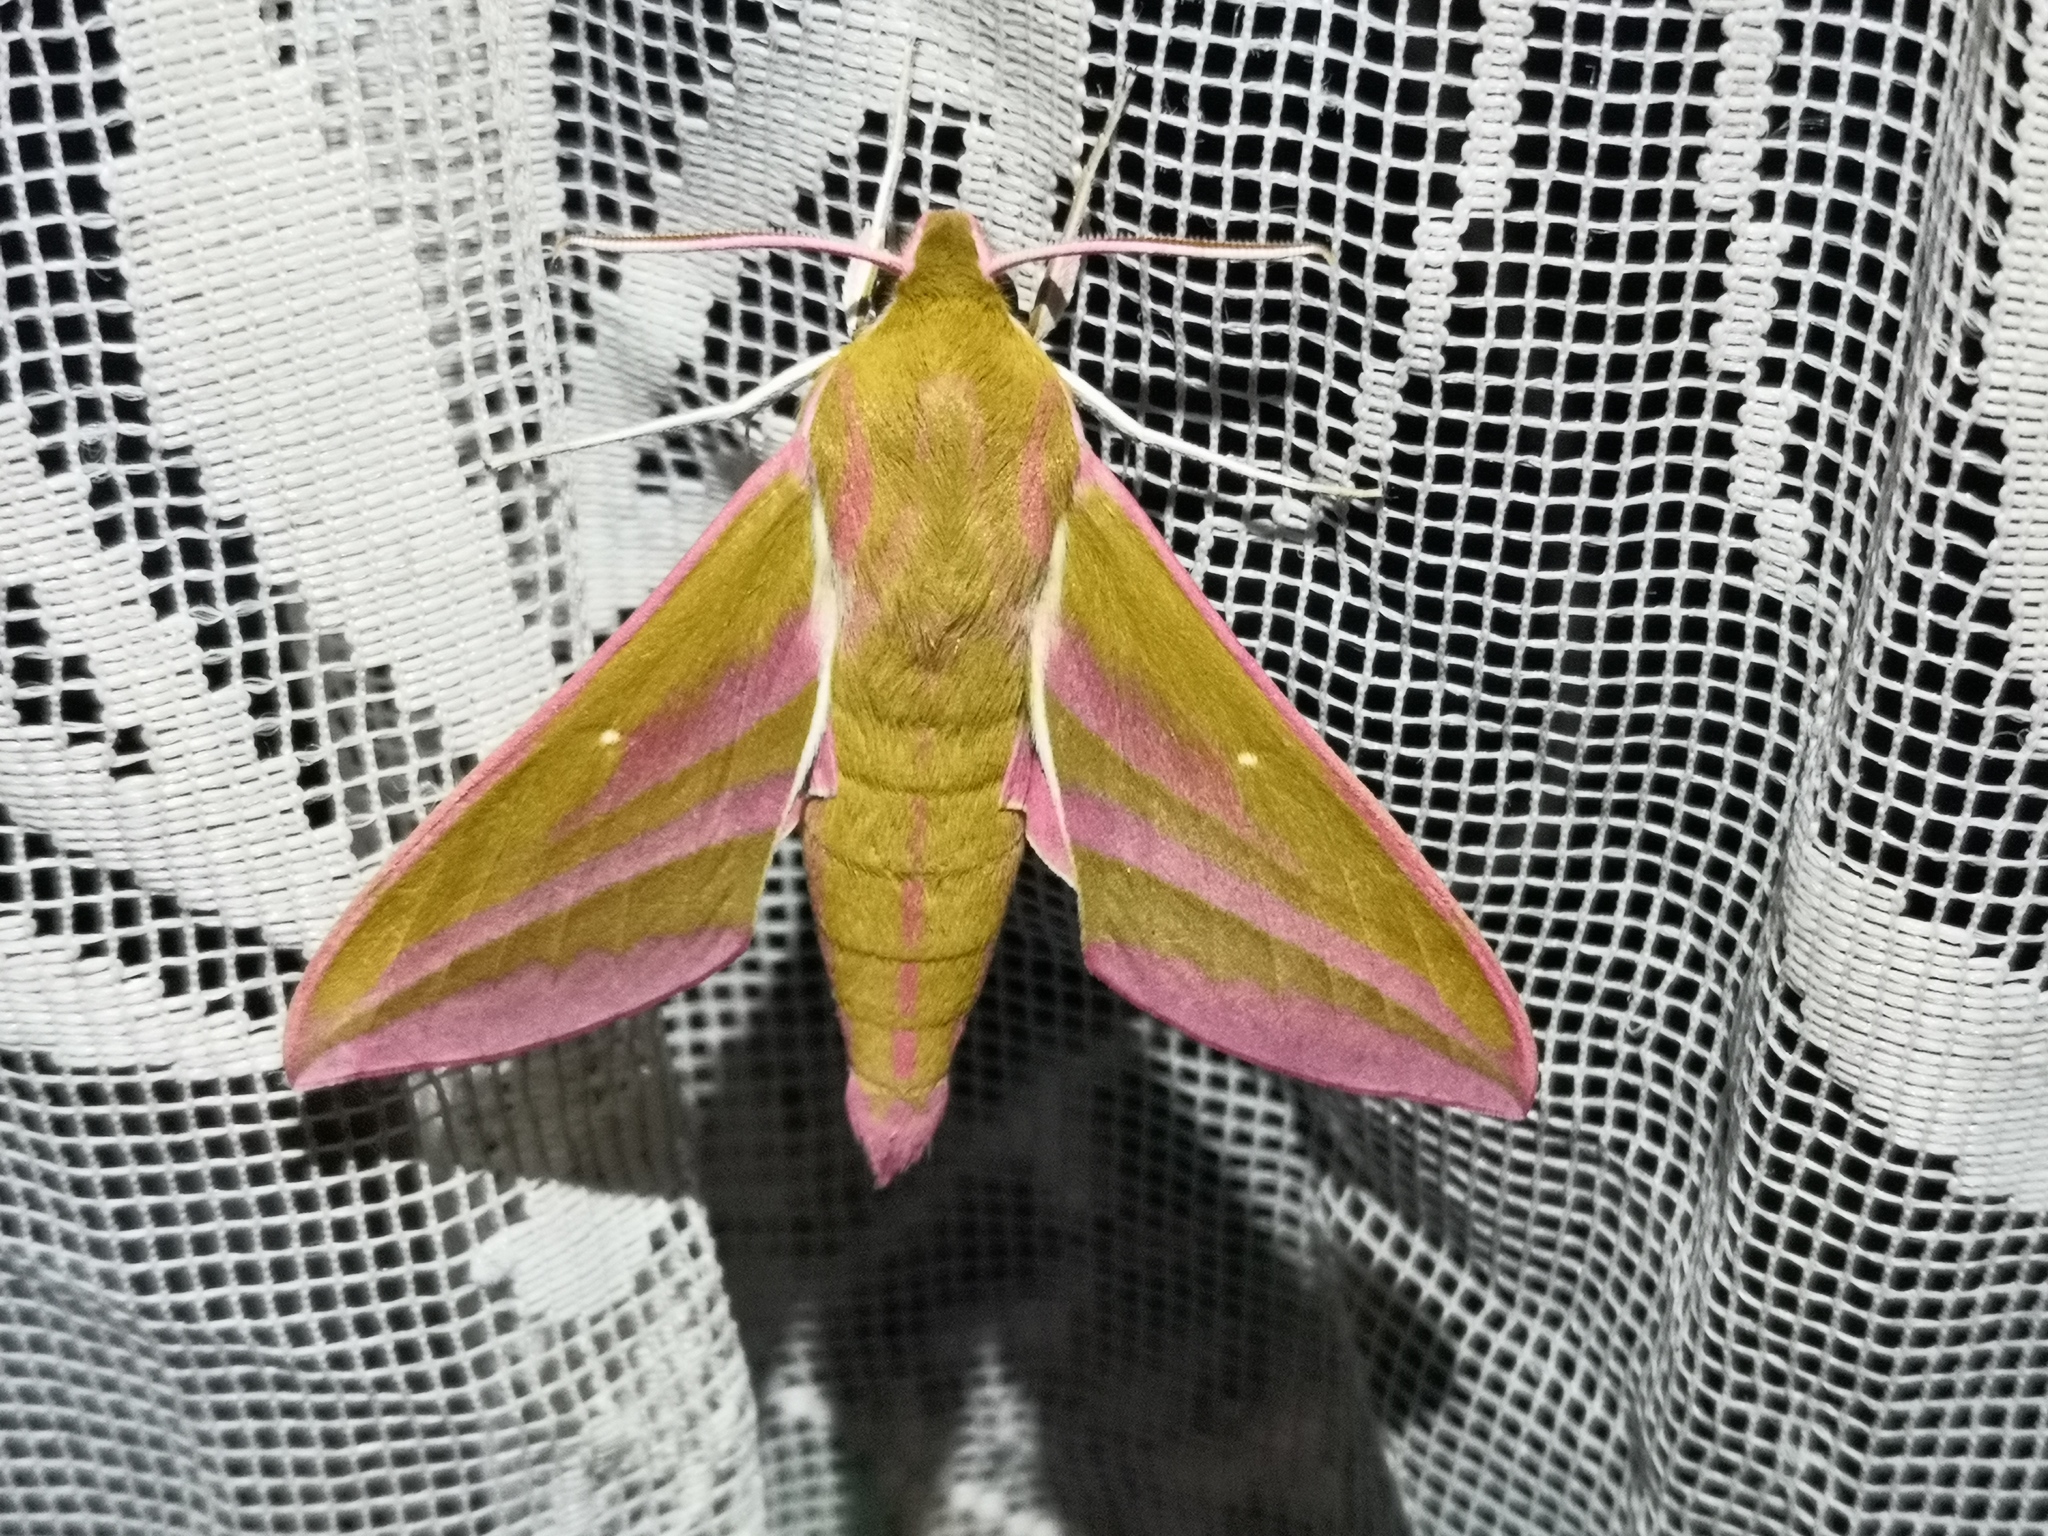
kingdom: Animalia
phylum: Arthropoda
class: Insecta
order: Lepidoptera
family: Sphingidae
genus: Deilephila
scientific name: Deilephila elpenor
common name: Elephant hawk-moth
